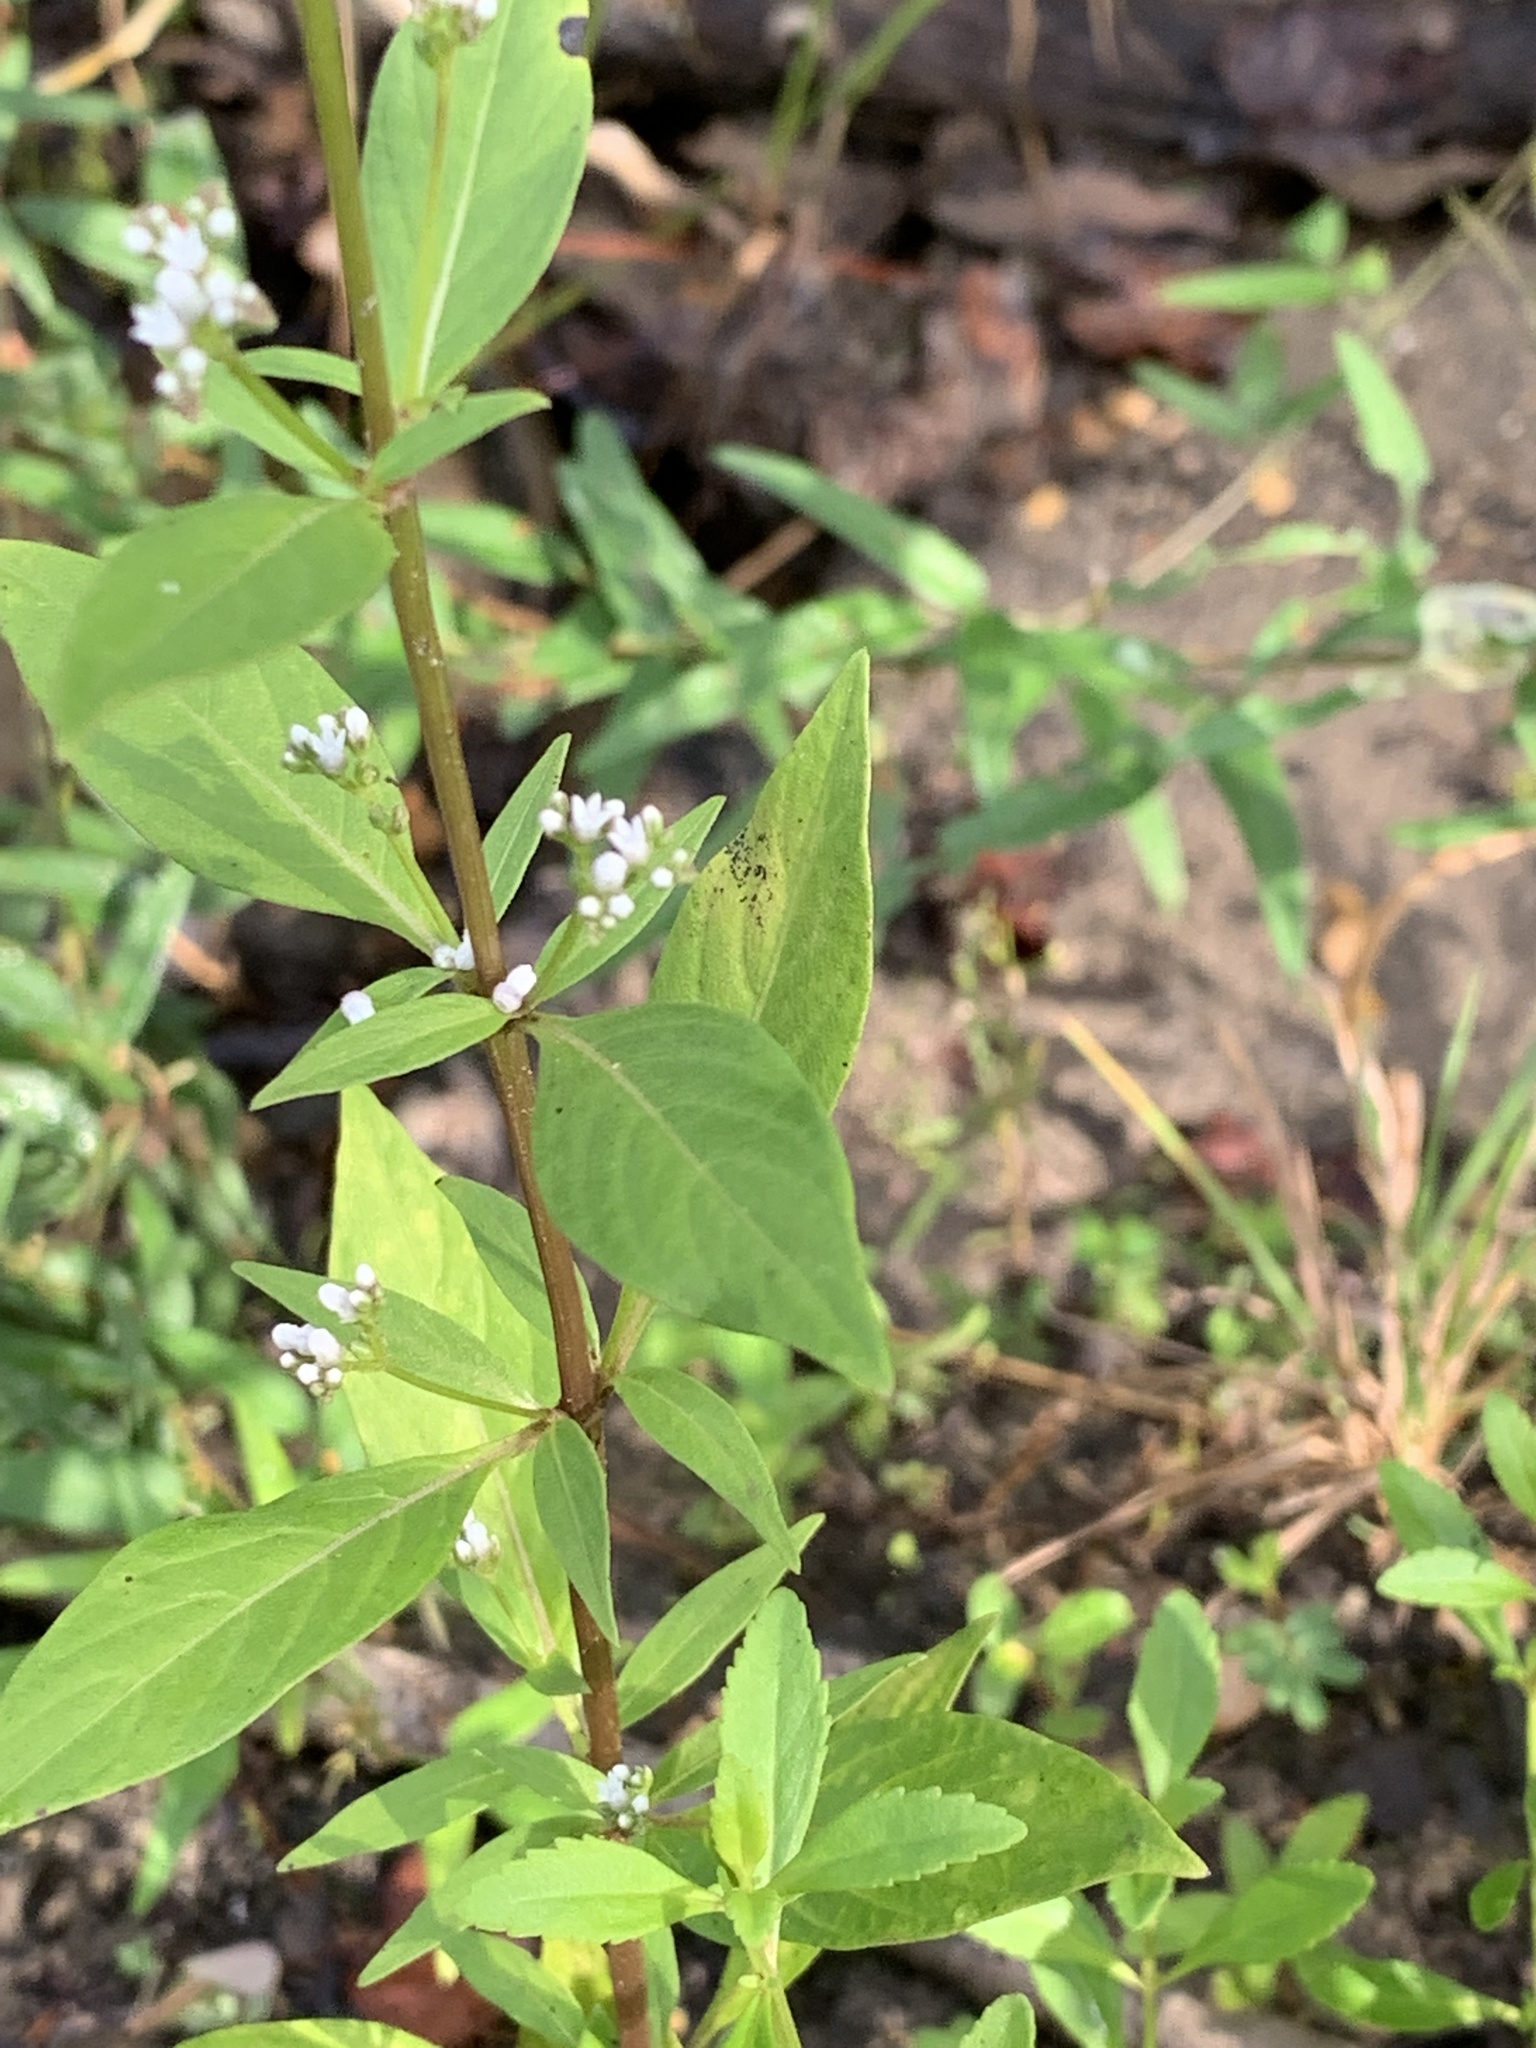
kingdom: Plantae
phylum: Tracheophyta
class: Magnoliopsida
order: Gentianales
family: Loganiaceae
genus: Mitreola
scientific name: Mitreola petiolata
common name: Lax hornpod
